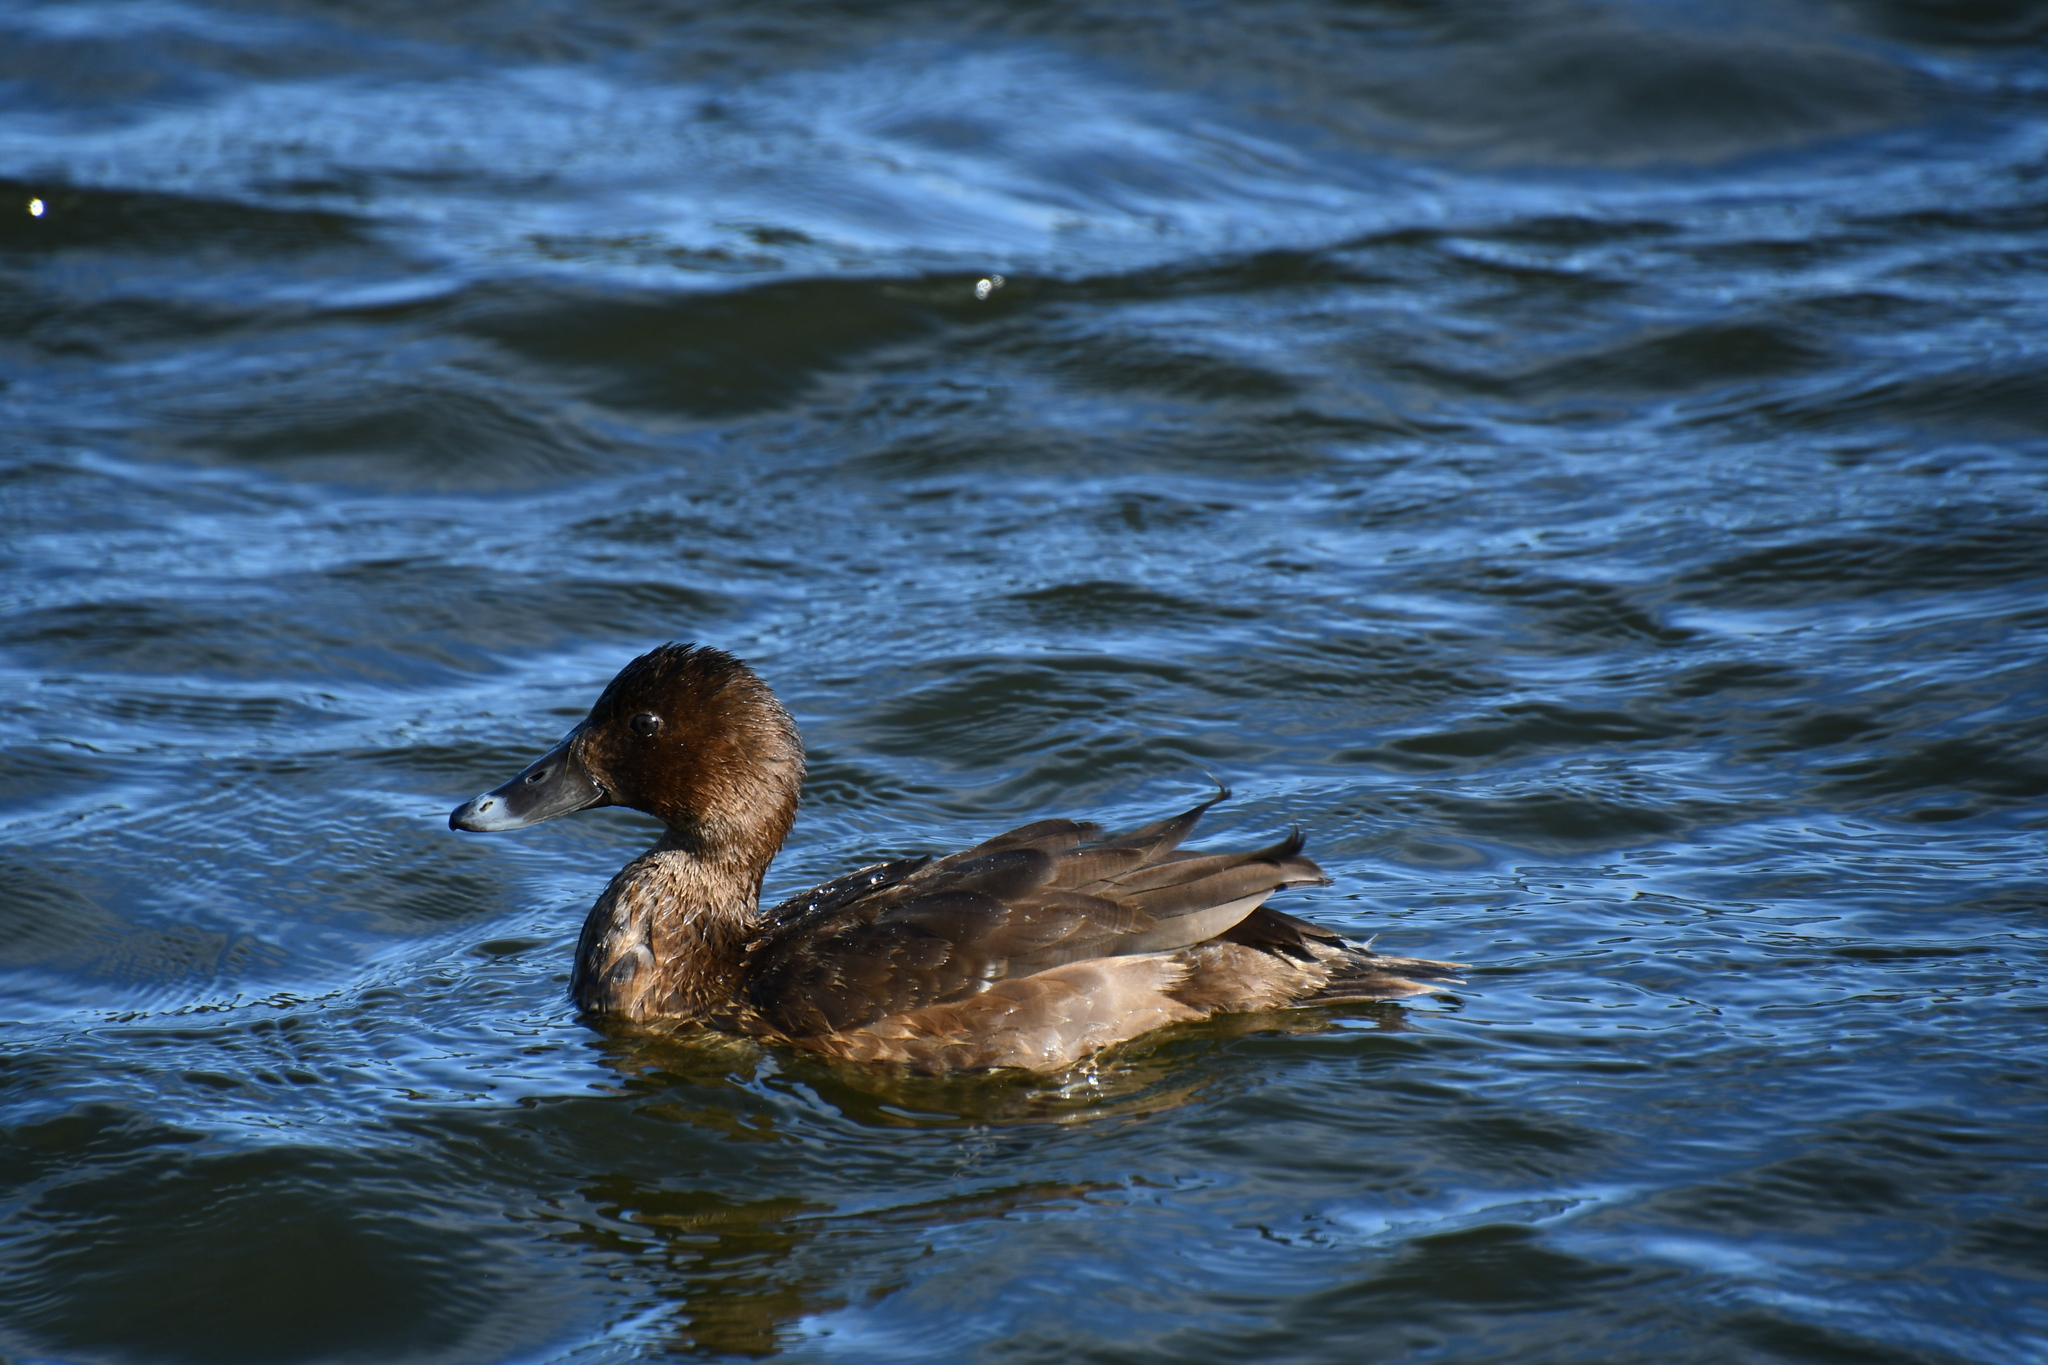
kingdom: Animalia
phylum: Chordata
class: Aves
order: Anseriformes
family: Anatidae
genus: Aythya
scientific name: Aythya australis
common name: Hardhead
